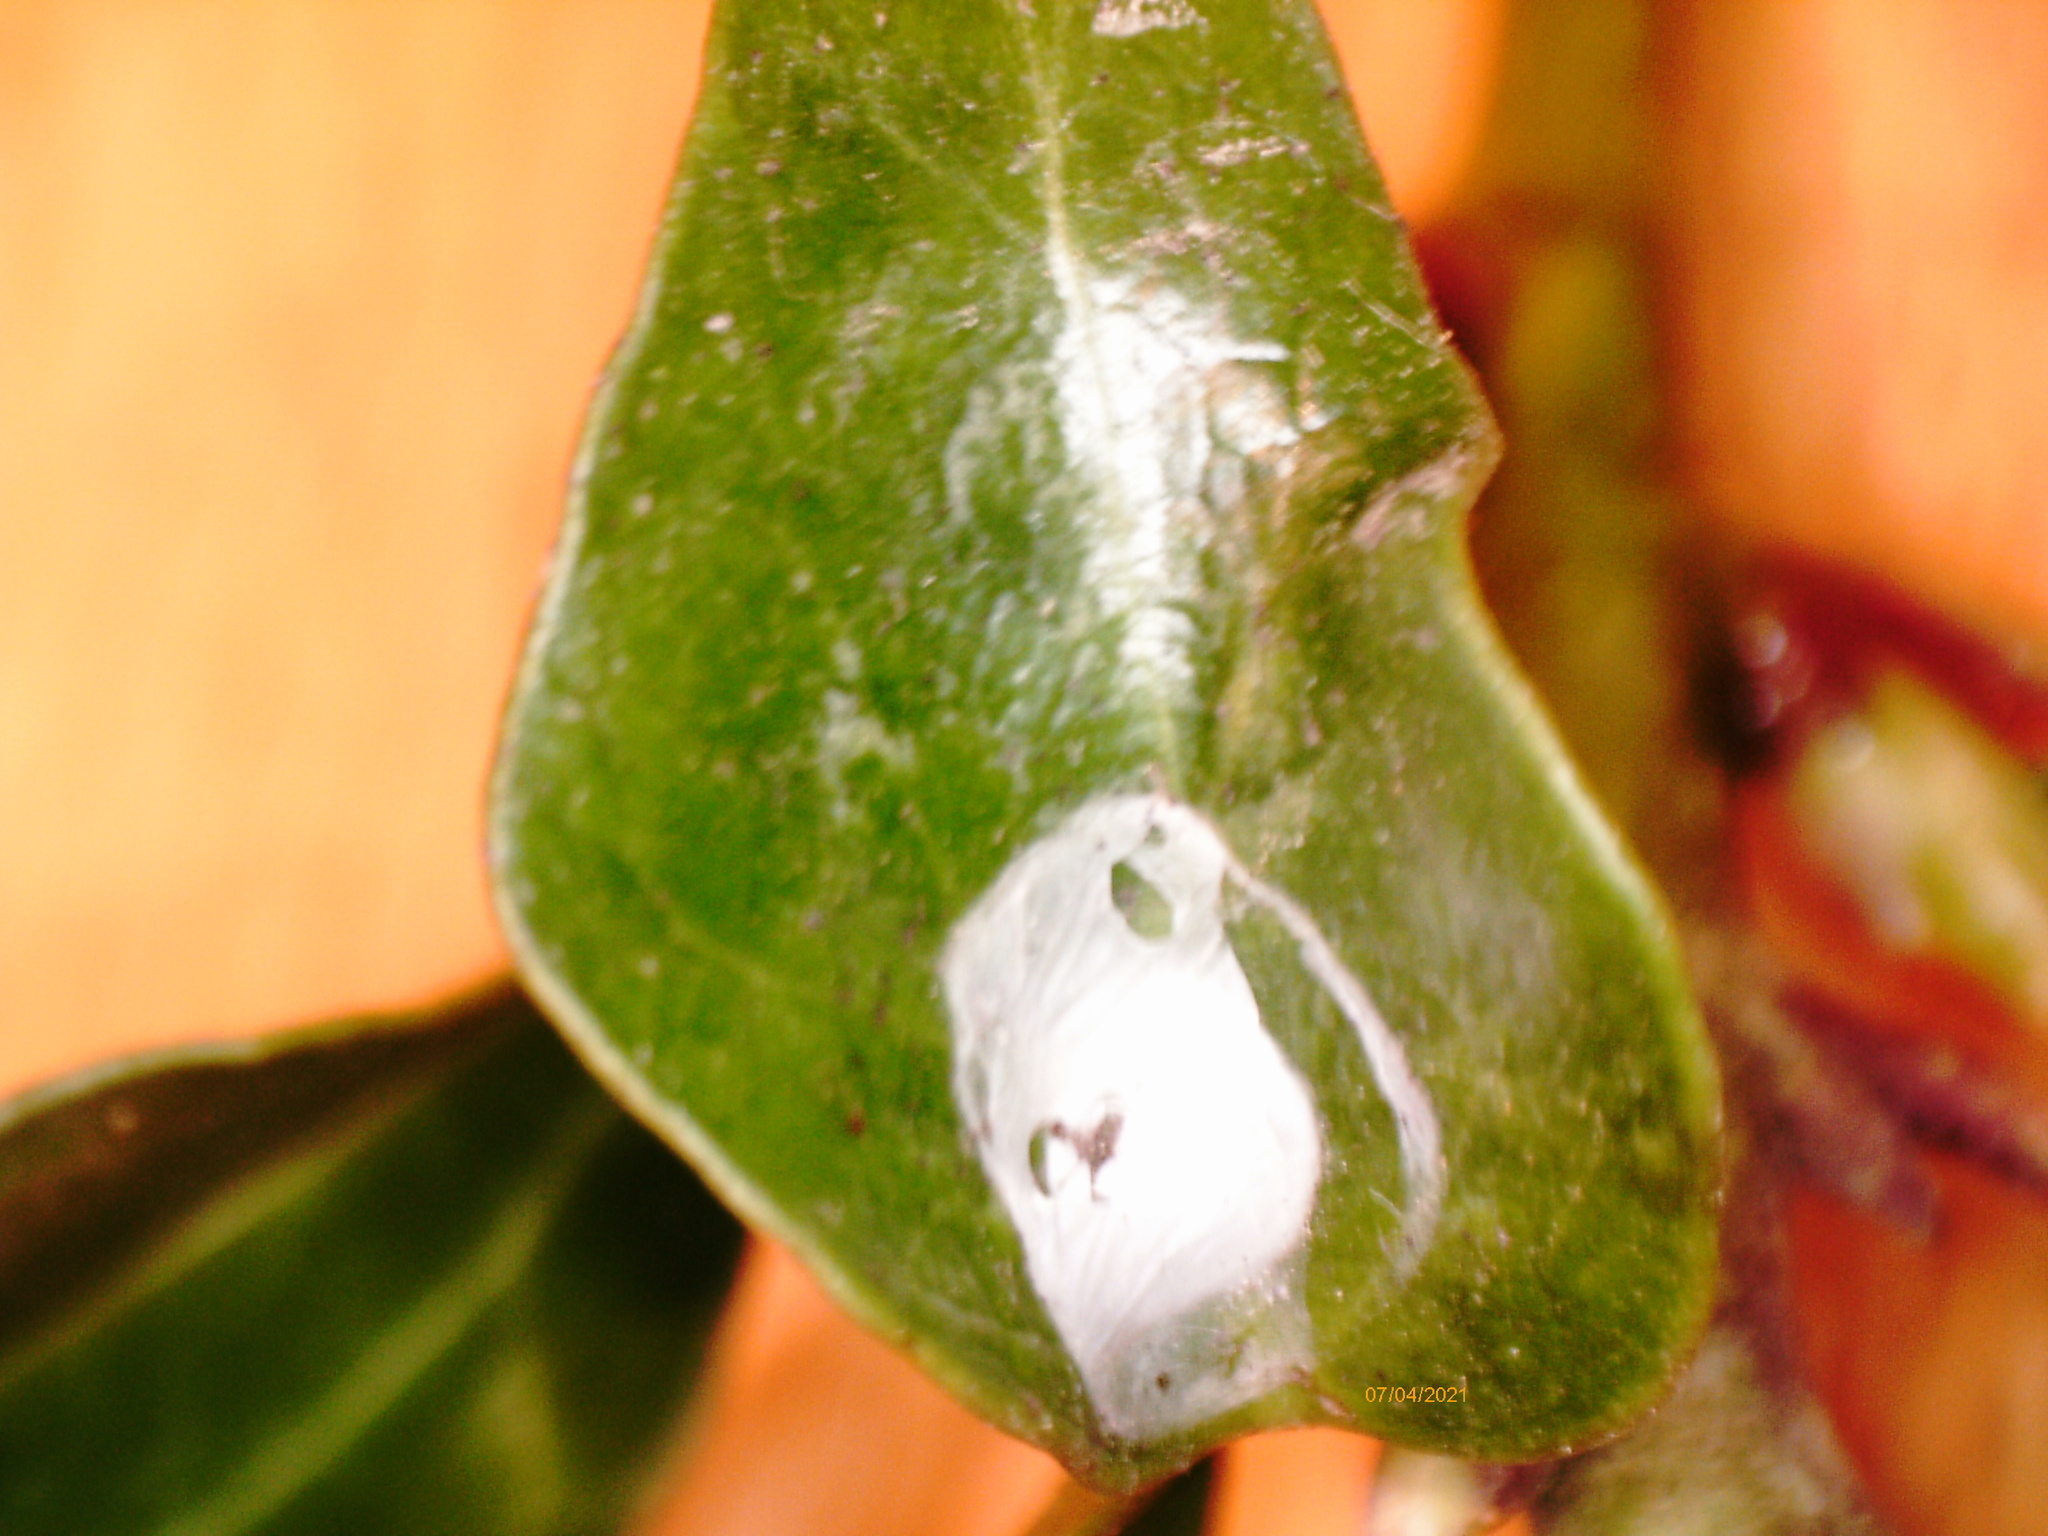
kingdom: Animalia
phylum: Arthropoda
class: Insecta
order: Neuroptera
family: Coniopterygidae
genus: Conwentzia
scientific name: Conwentzia psociformis
